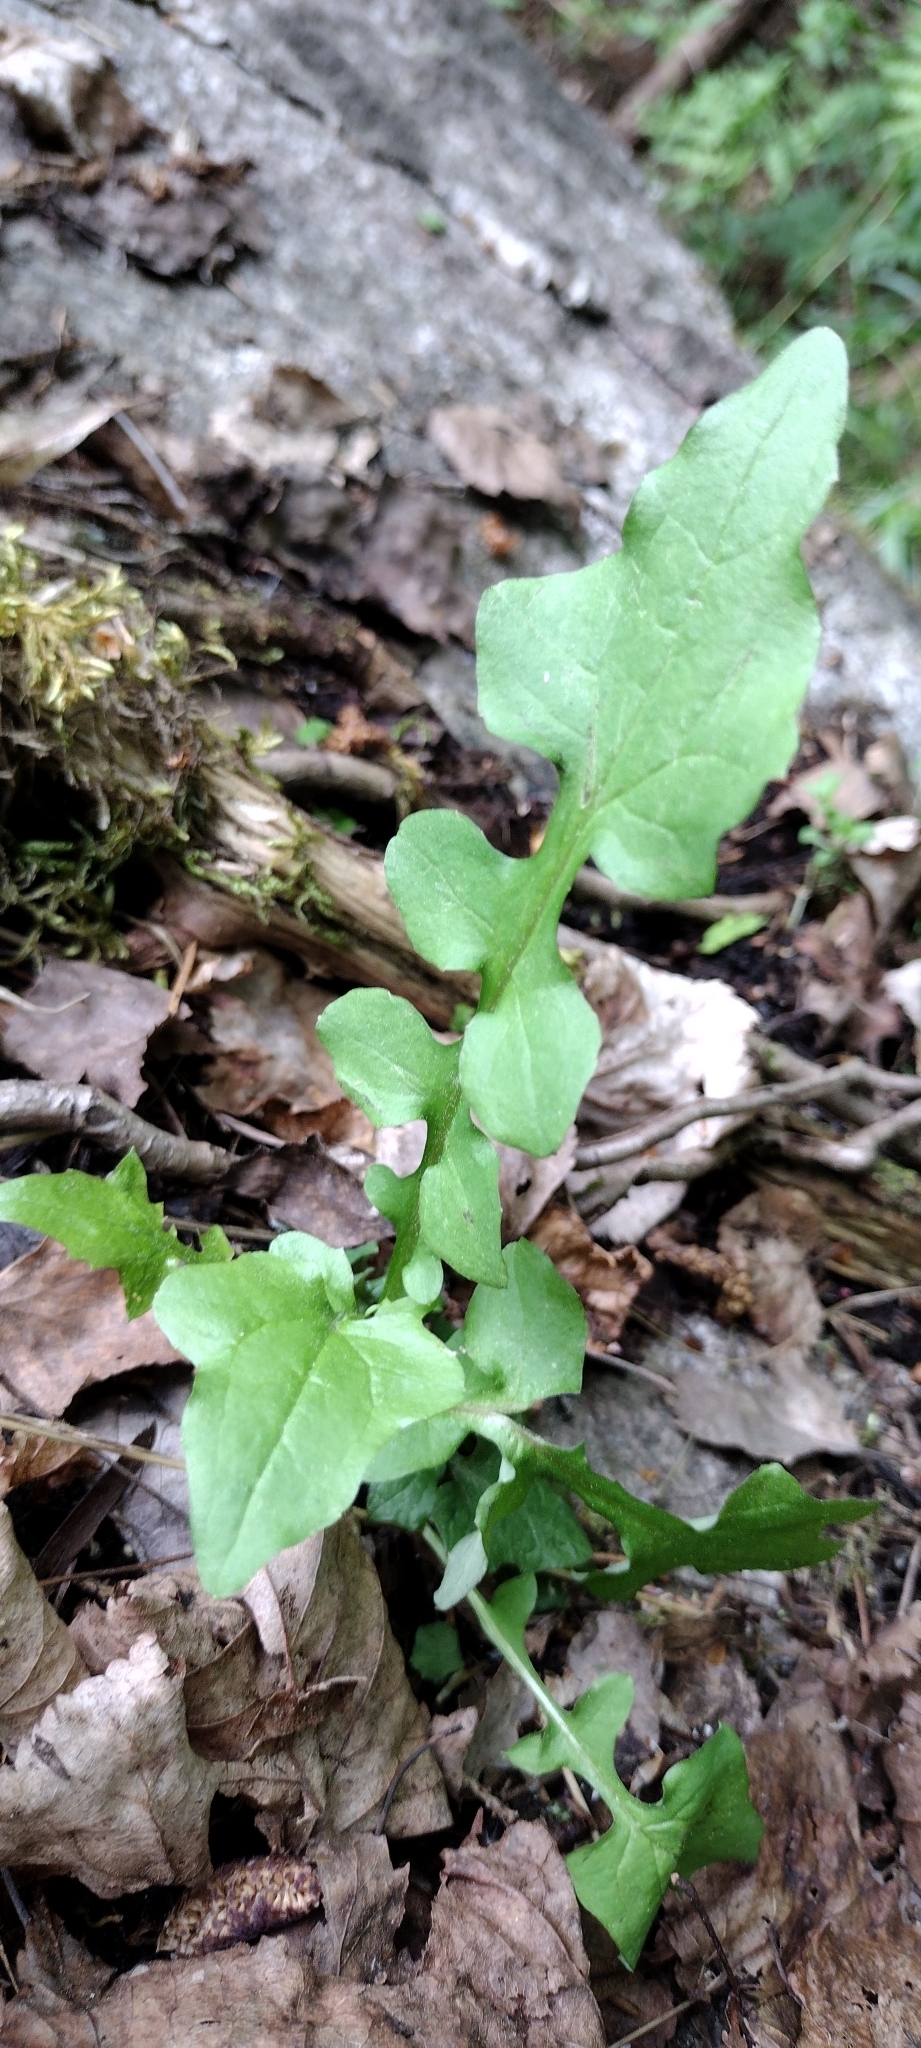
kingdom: Plantae
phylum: Tracheophyta
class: Magnoliopsida
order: Asterales
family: Asteraceae
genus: Mycelis
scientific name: Mycelis muralis
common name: Wall lettuce
